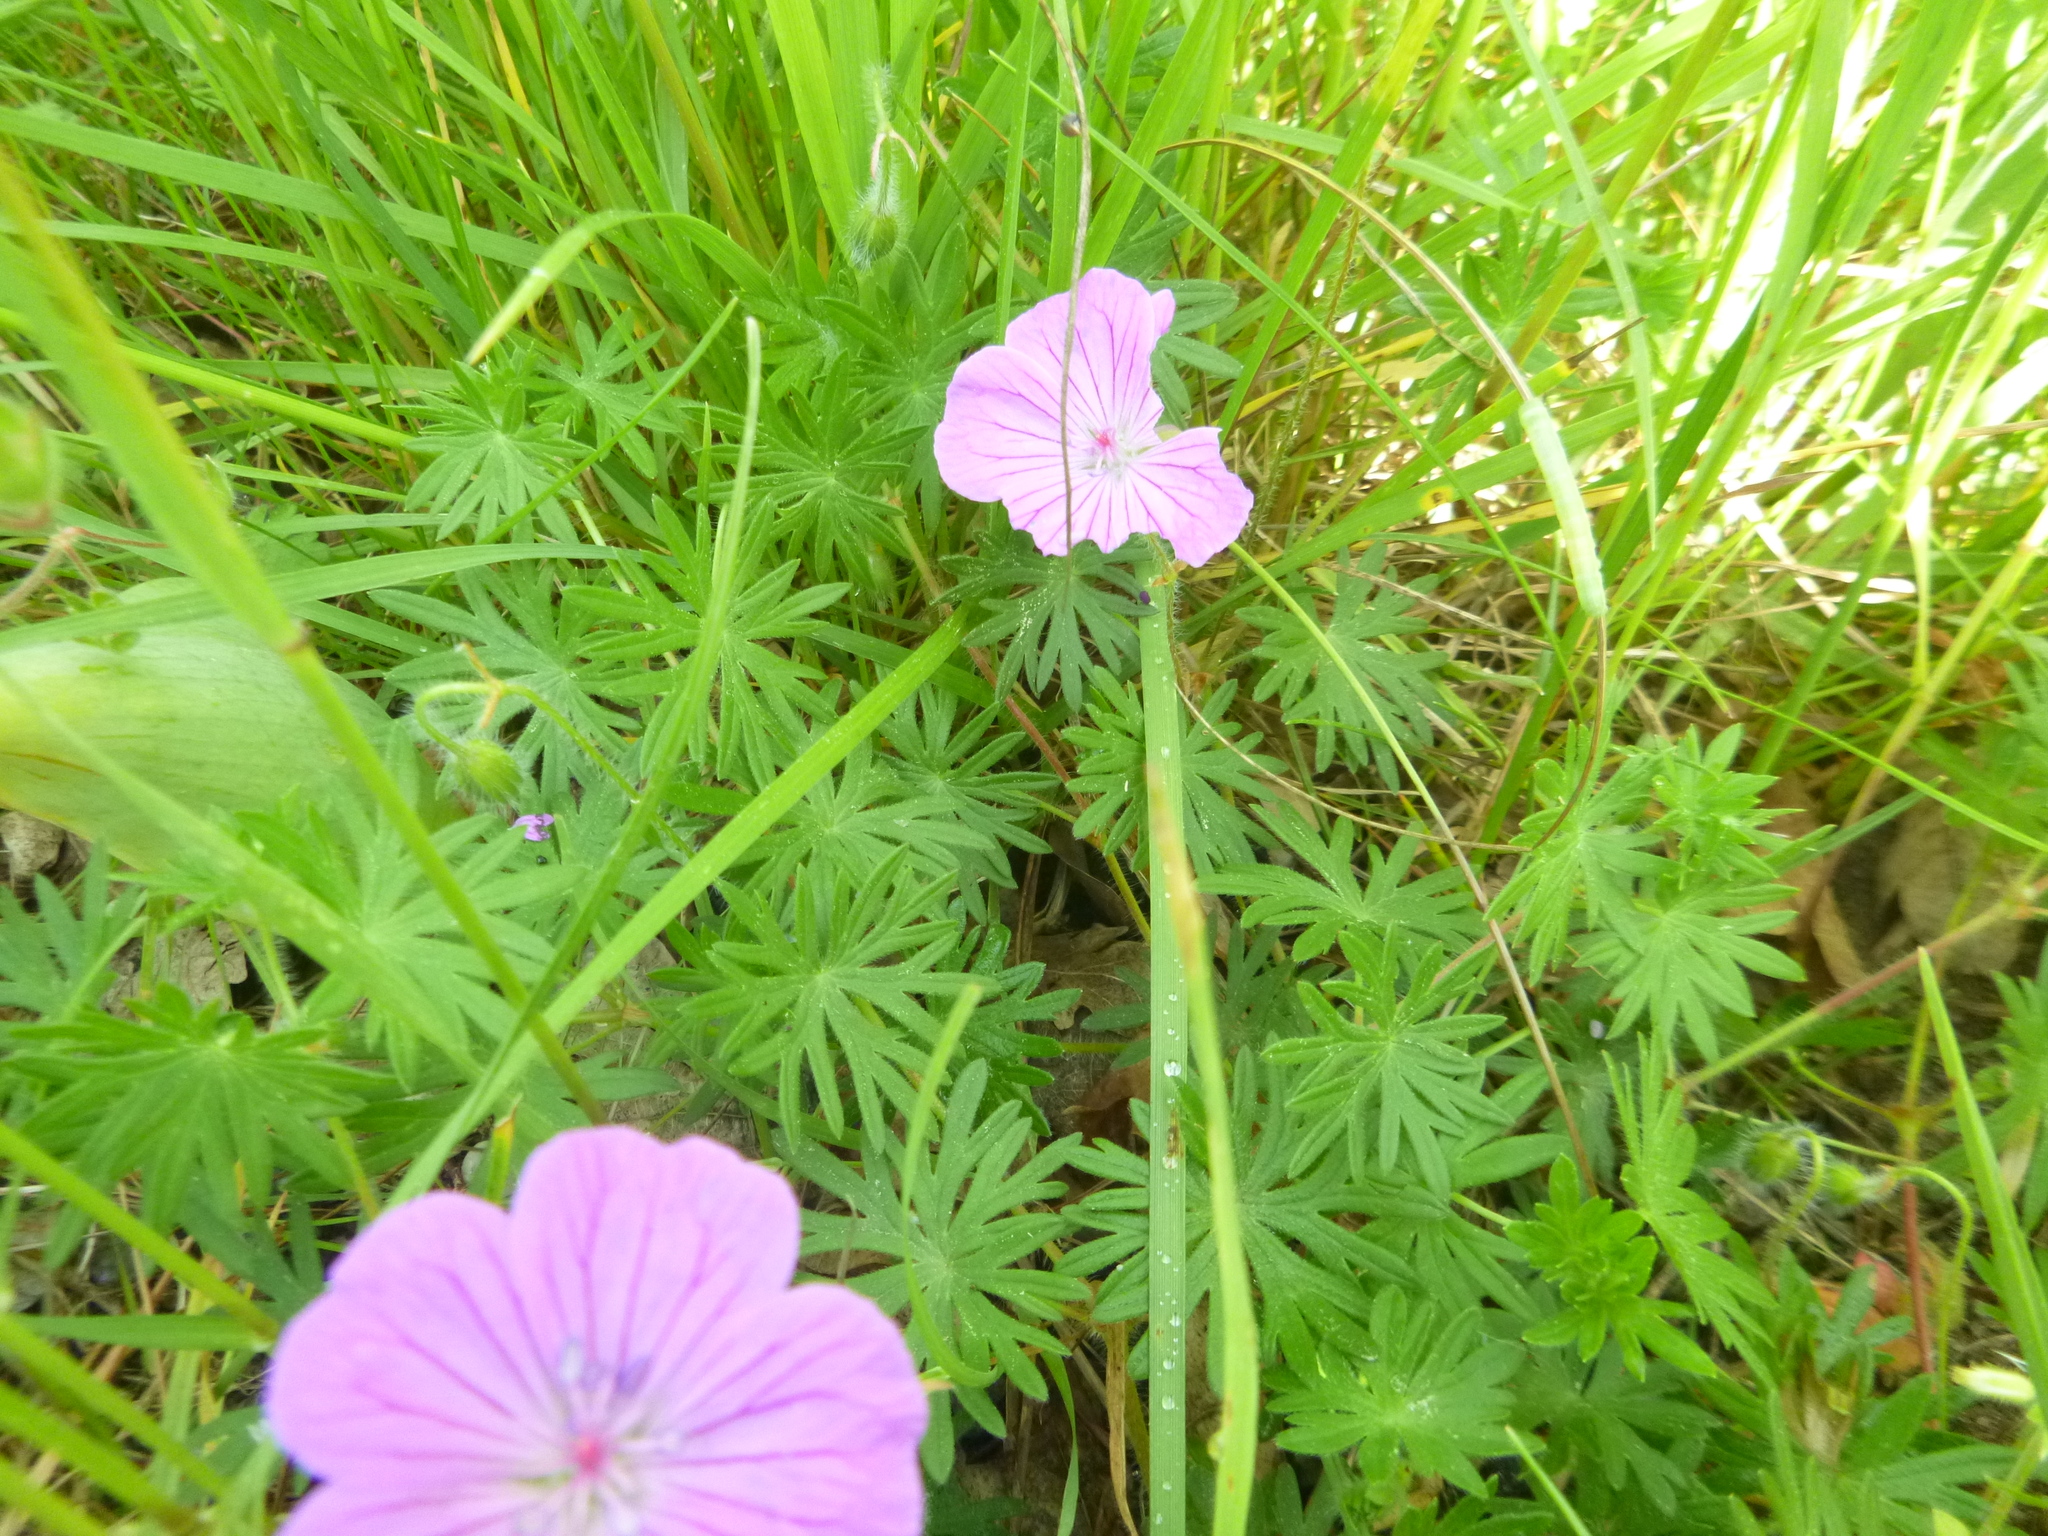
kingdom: Plantae
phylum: Tracheophyta
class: Magnoliopsida
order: Geraniales
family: Geraniaceae
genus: Geranium
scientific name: Geranium sanguineum
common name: Bloody crane's-bill
